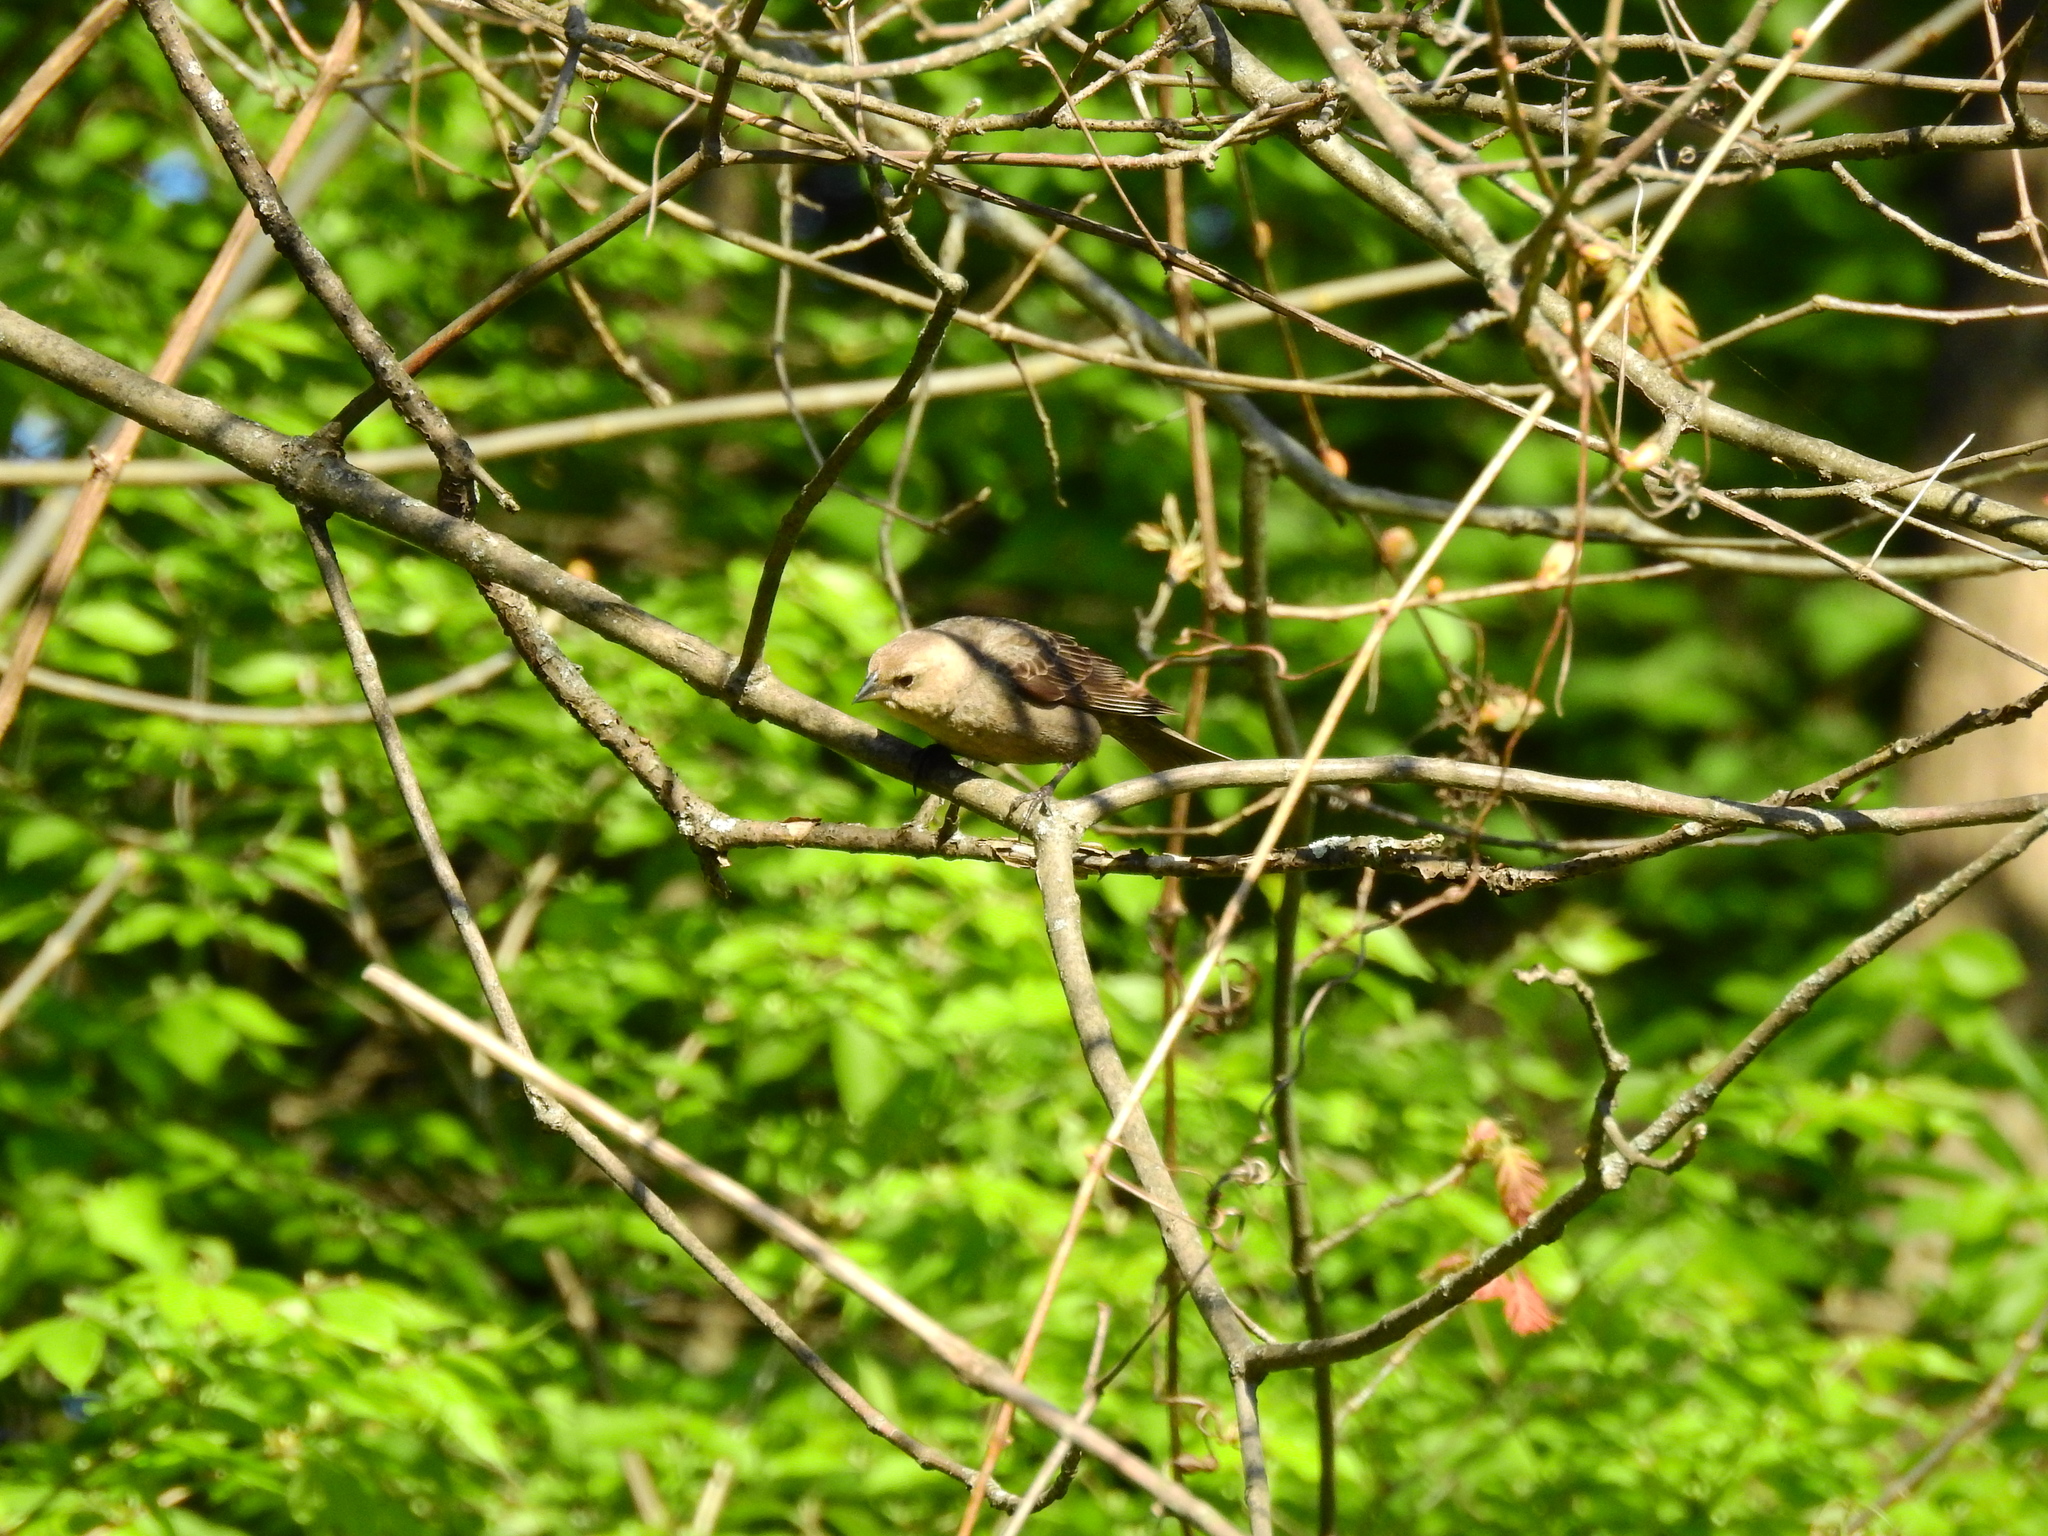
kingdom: Animalia
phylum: Chordata
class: Aves
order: Passeriformes
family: Icteridae
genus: Molothrus
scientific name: Molothrus ater
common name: Brown-headed cowbird
